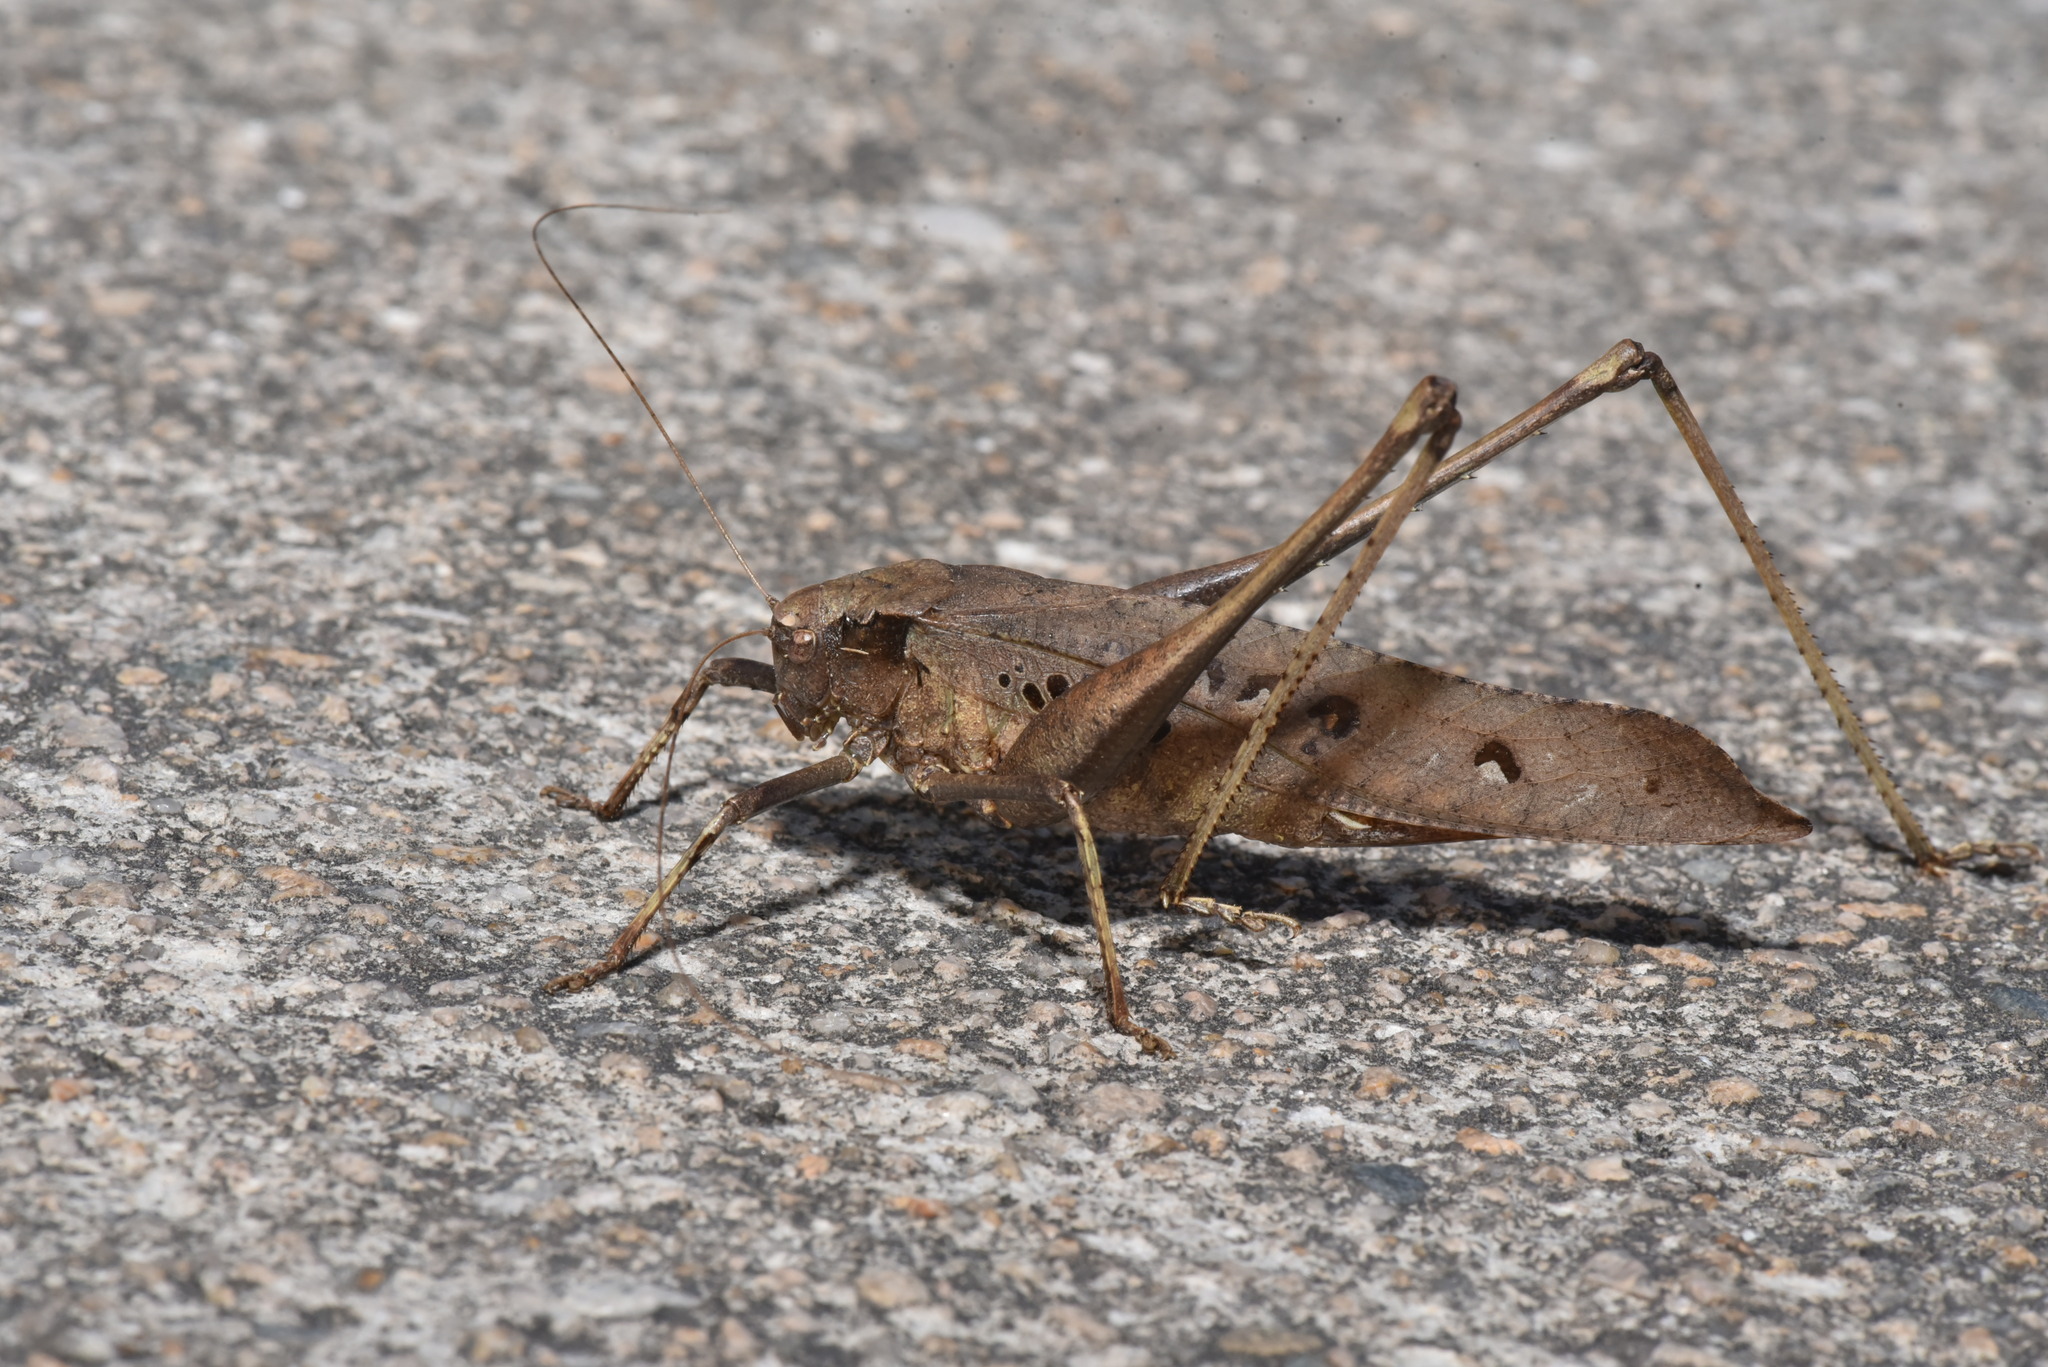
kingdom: Animalia
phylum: Arthropoda
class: Insecta
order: Orthoptera
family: Tettigoniidae
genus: Mecopoda
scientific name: Mecopoda elongata
